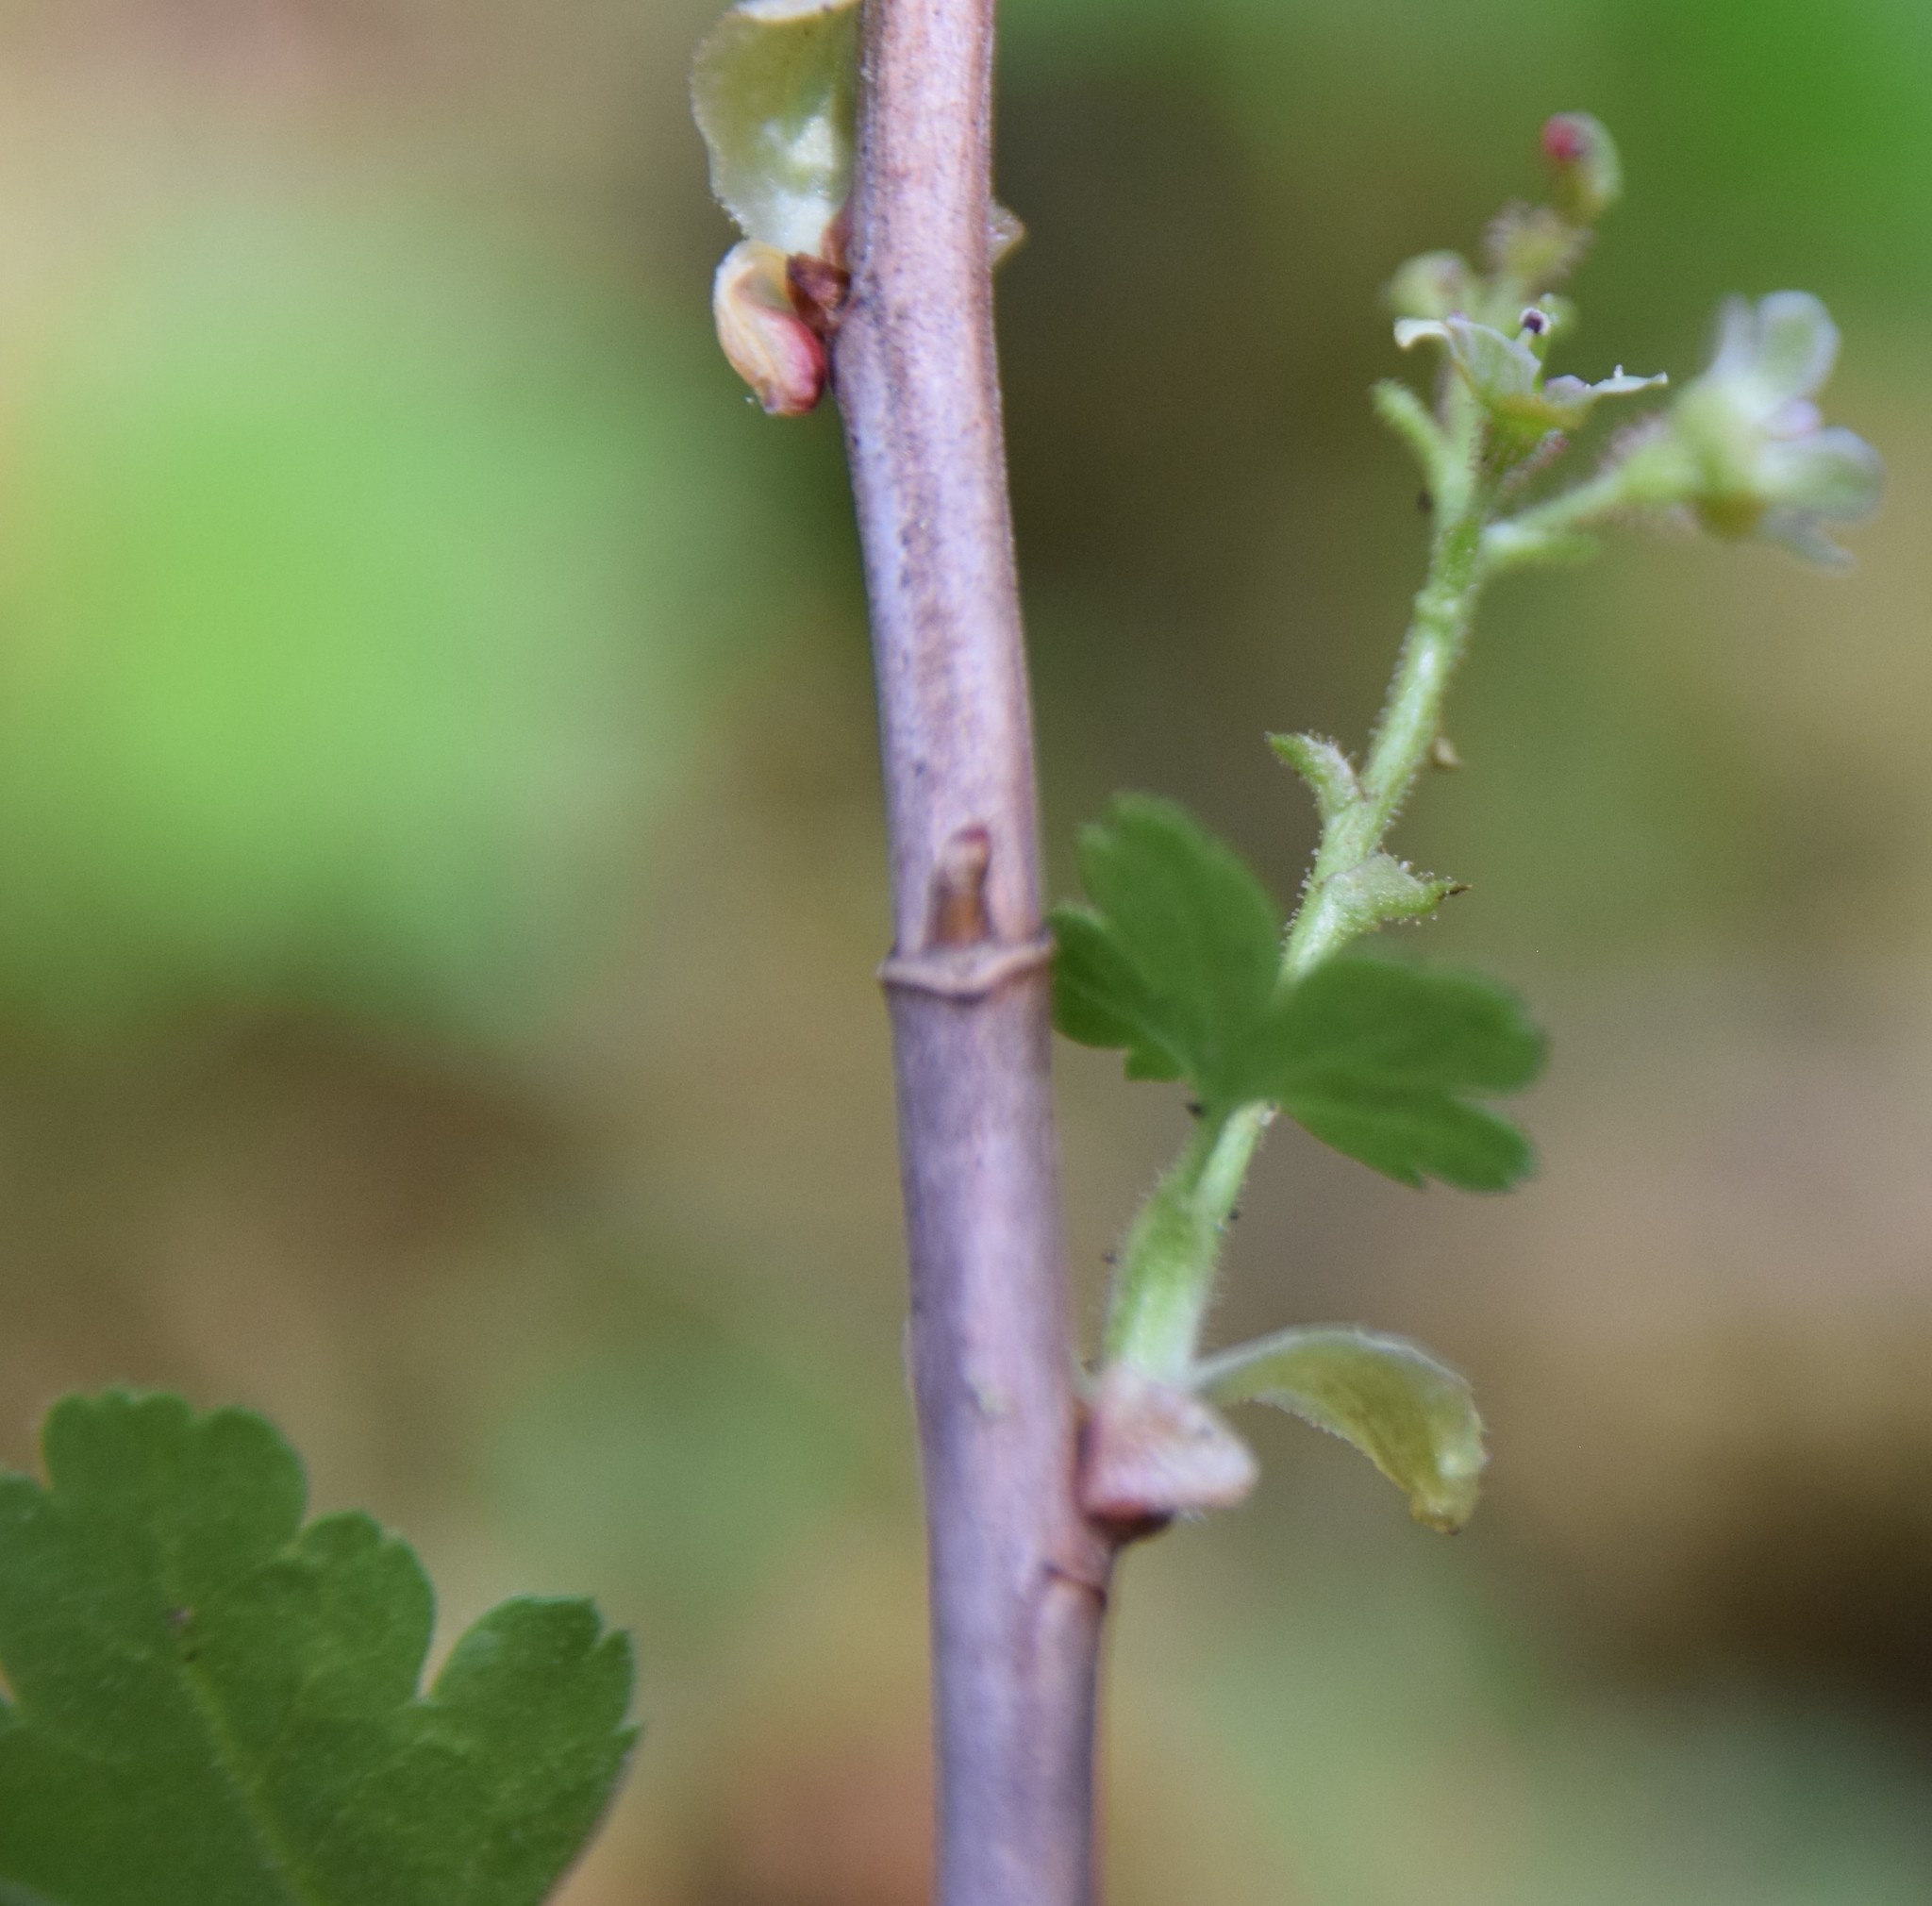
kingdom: Plantae
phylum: Tracheophyta
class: Magnoliopsida
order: Saxifragales
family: Grossulariaceae
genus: Ribes
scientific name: Ribes glandulosum
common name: Skunk currant
